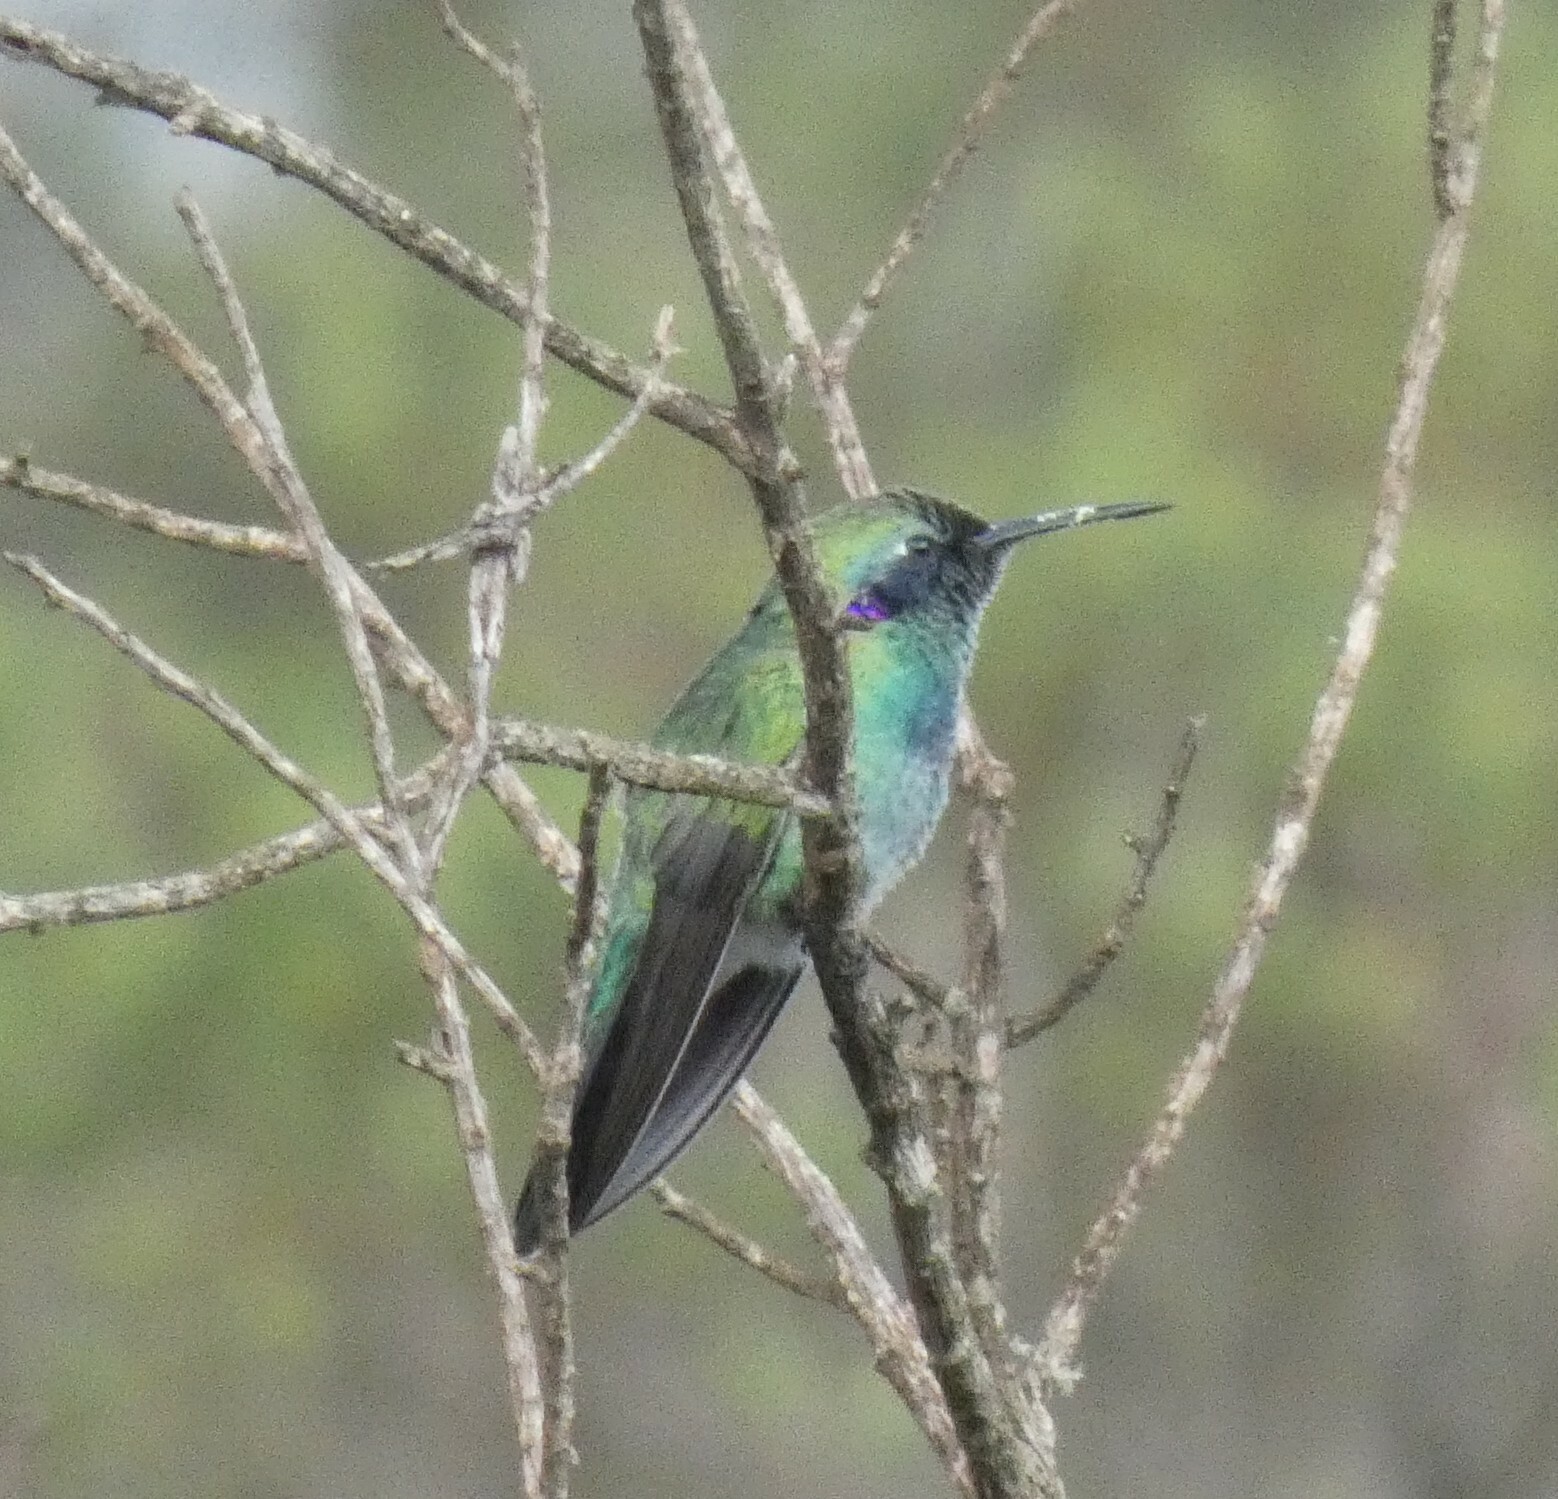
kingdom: Animalia
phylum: Chordata
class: Aves
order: Apodiformes
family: Trochilidae
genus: Colibri
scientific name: Colibri serrirostris
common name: White-vented violetear
